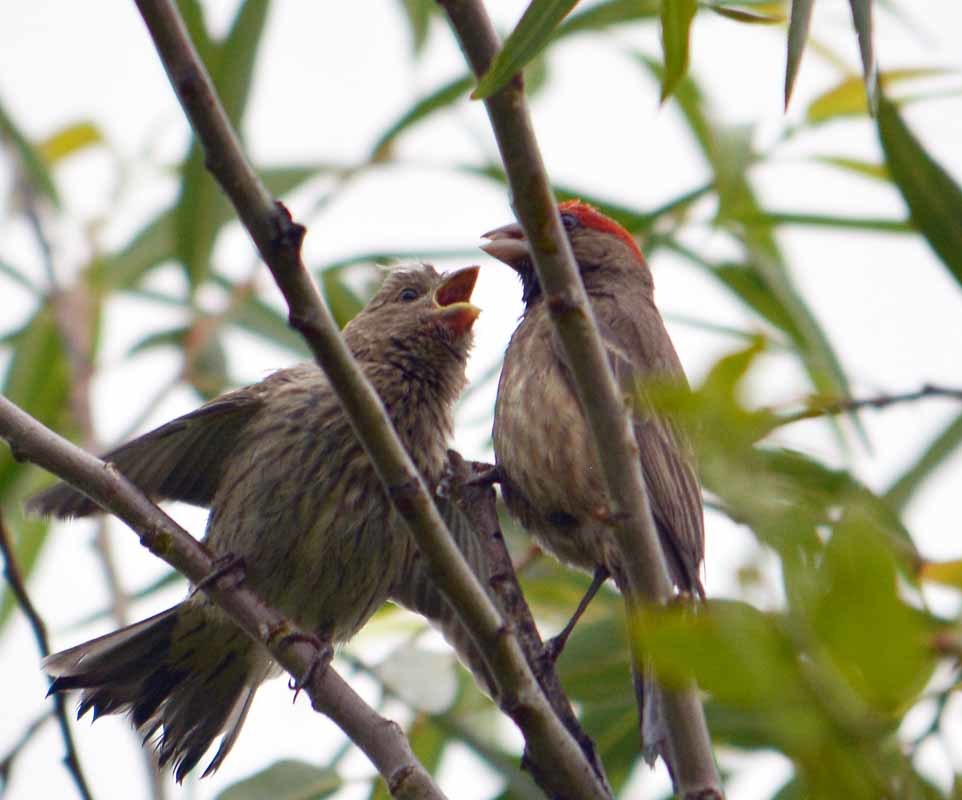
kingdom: Animalia
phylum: Chordata
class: Aves
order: Passeriformes
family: Fringillidae
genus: Haemorhous
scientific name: Haemorhous mexicanus
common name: House finch
